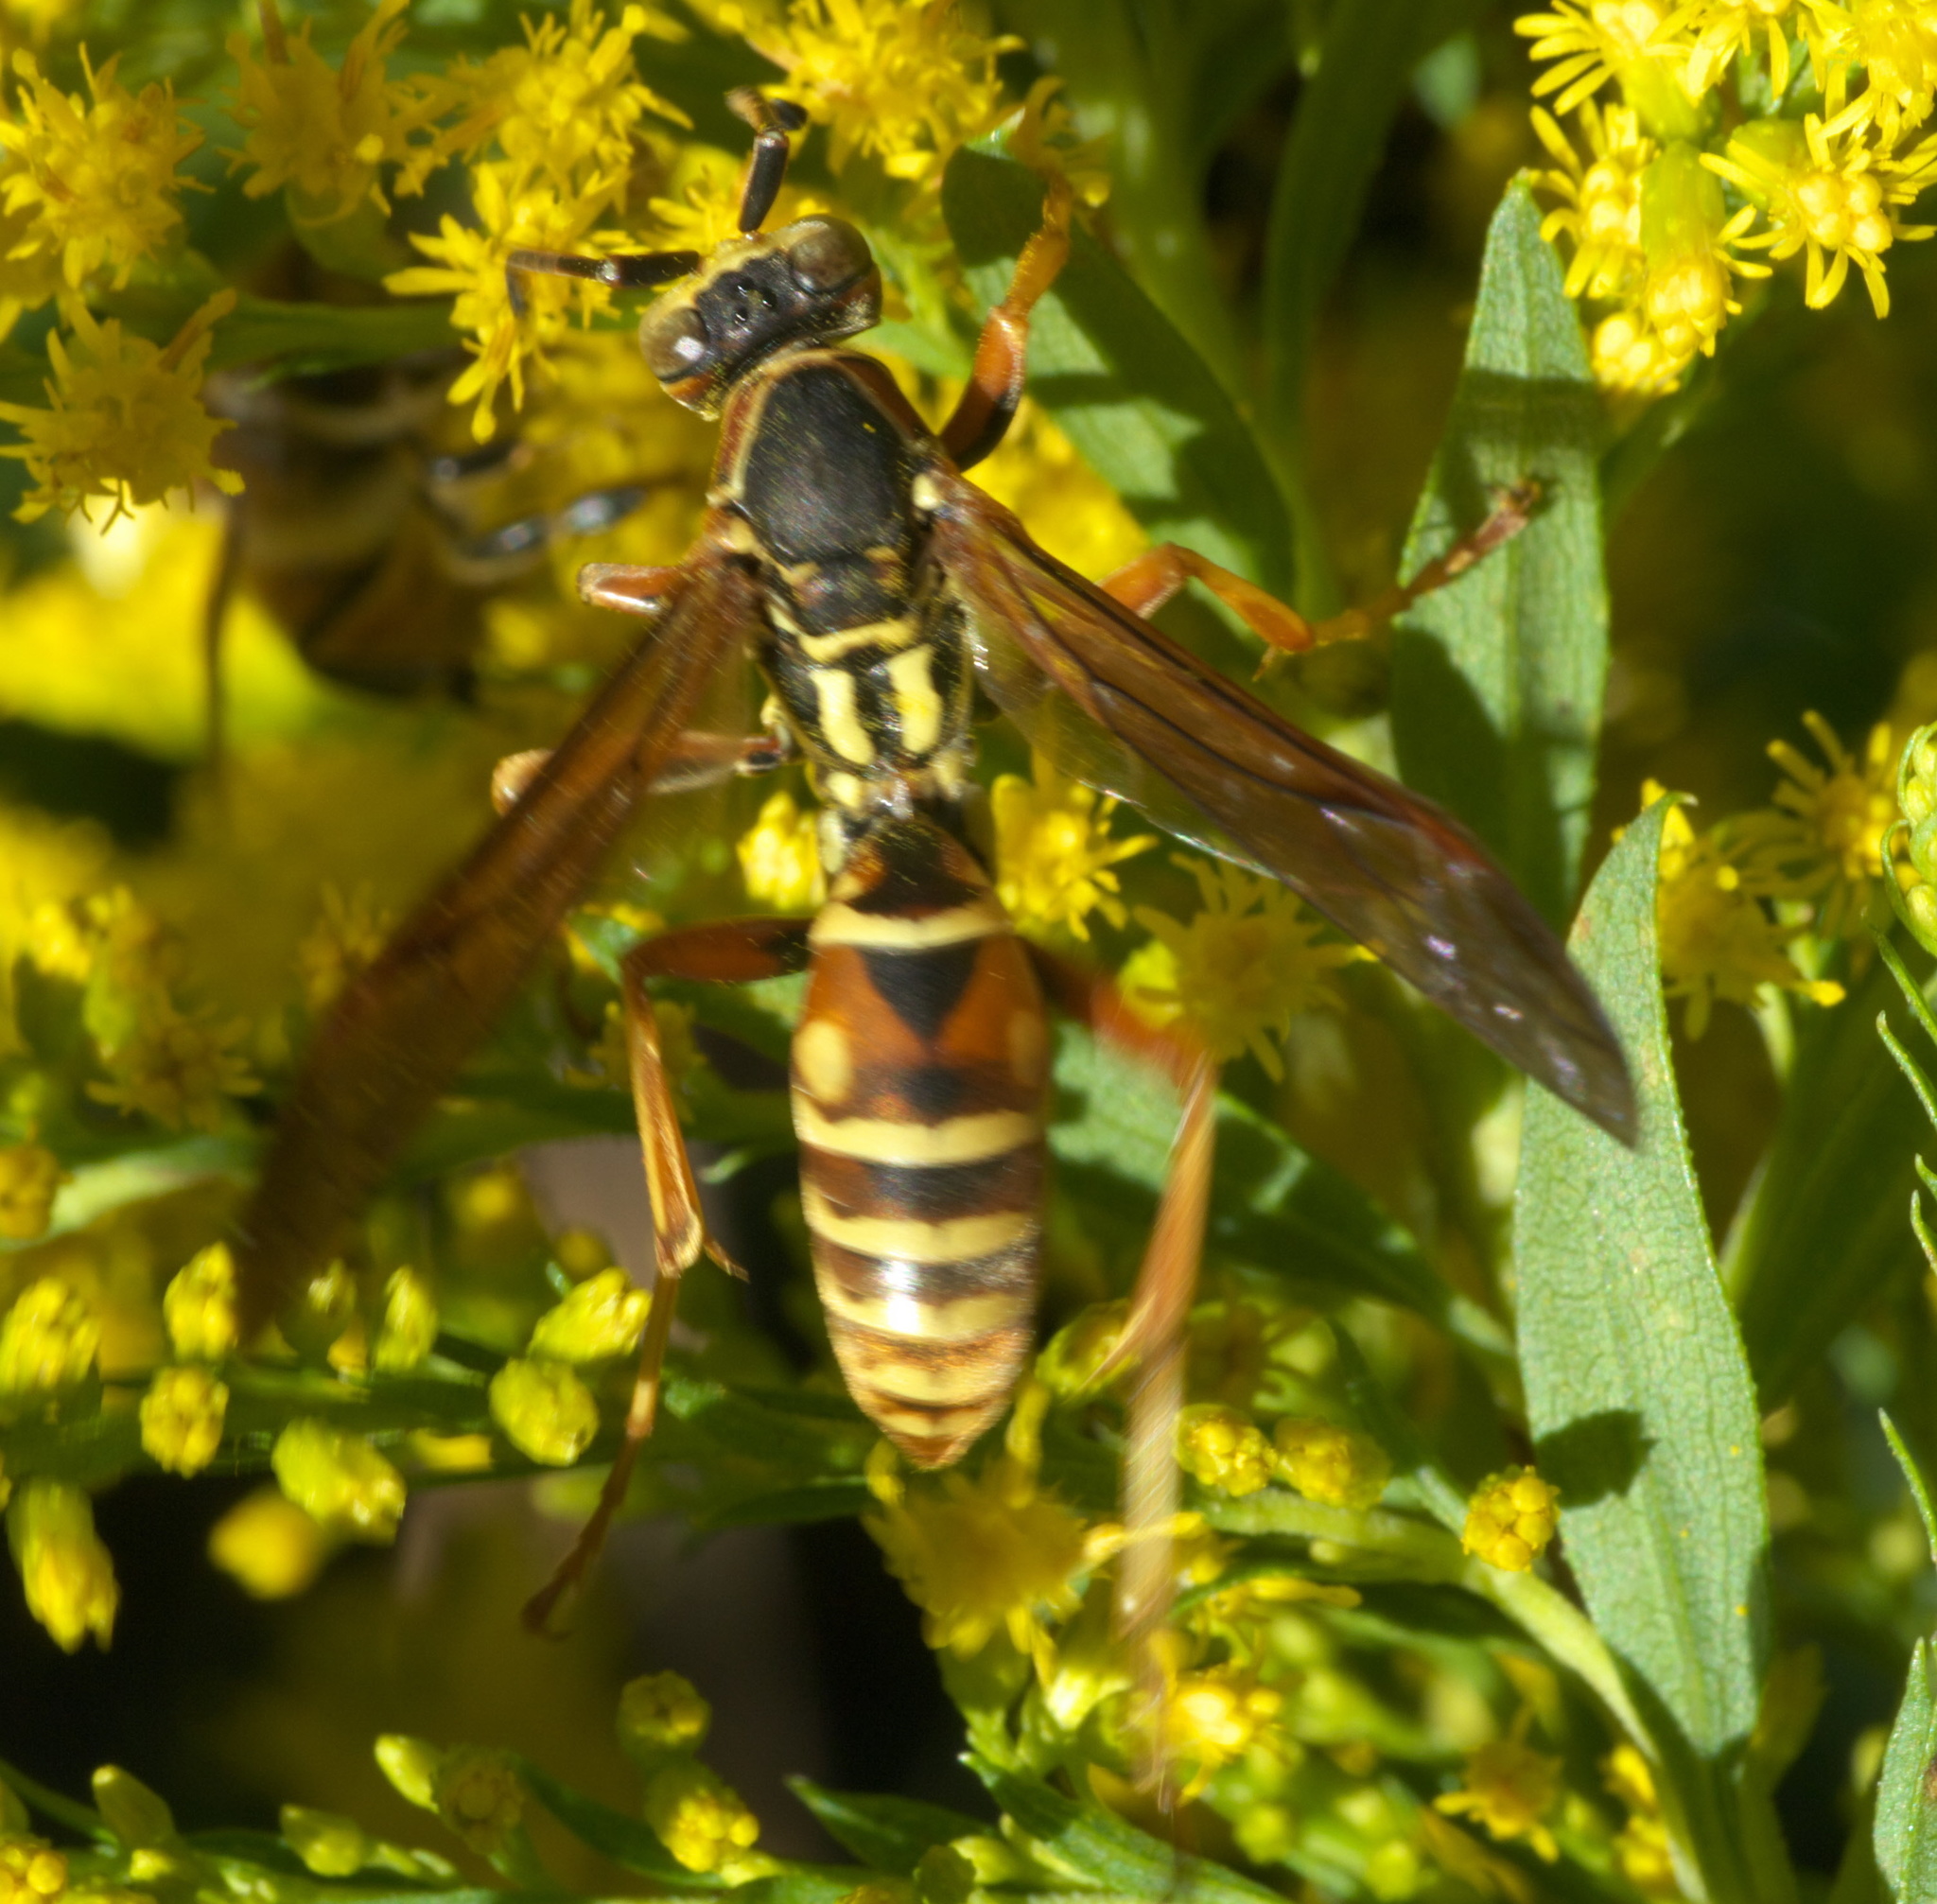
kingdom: Animalia
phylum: Arthropoda
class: Insecta
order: Hymenoptera
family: Eumenidae
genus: Polistes
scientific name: Polistes fuscatus
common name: Dark paper wasp
